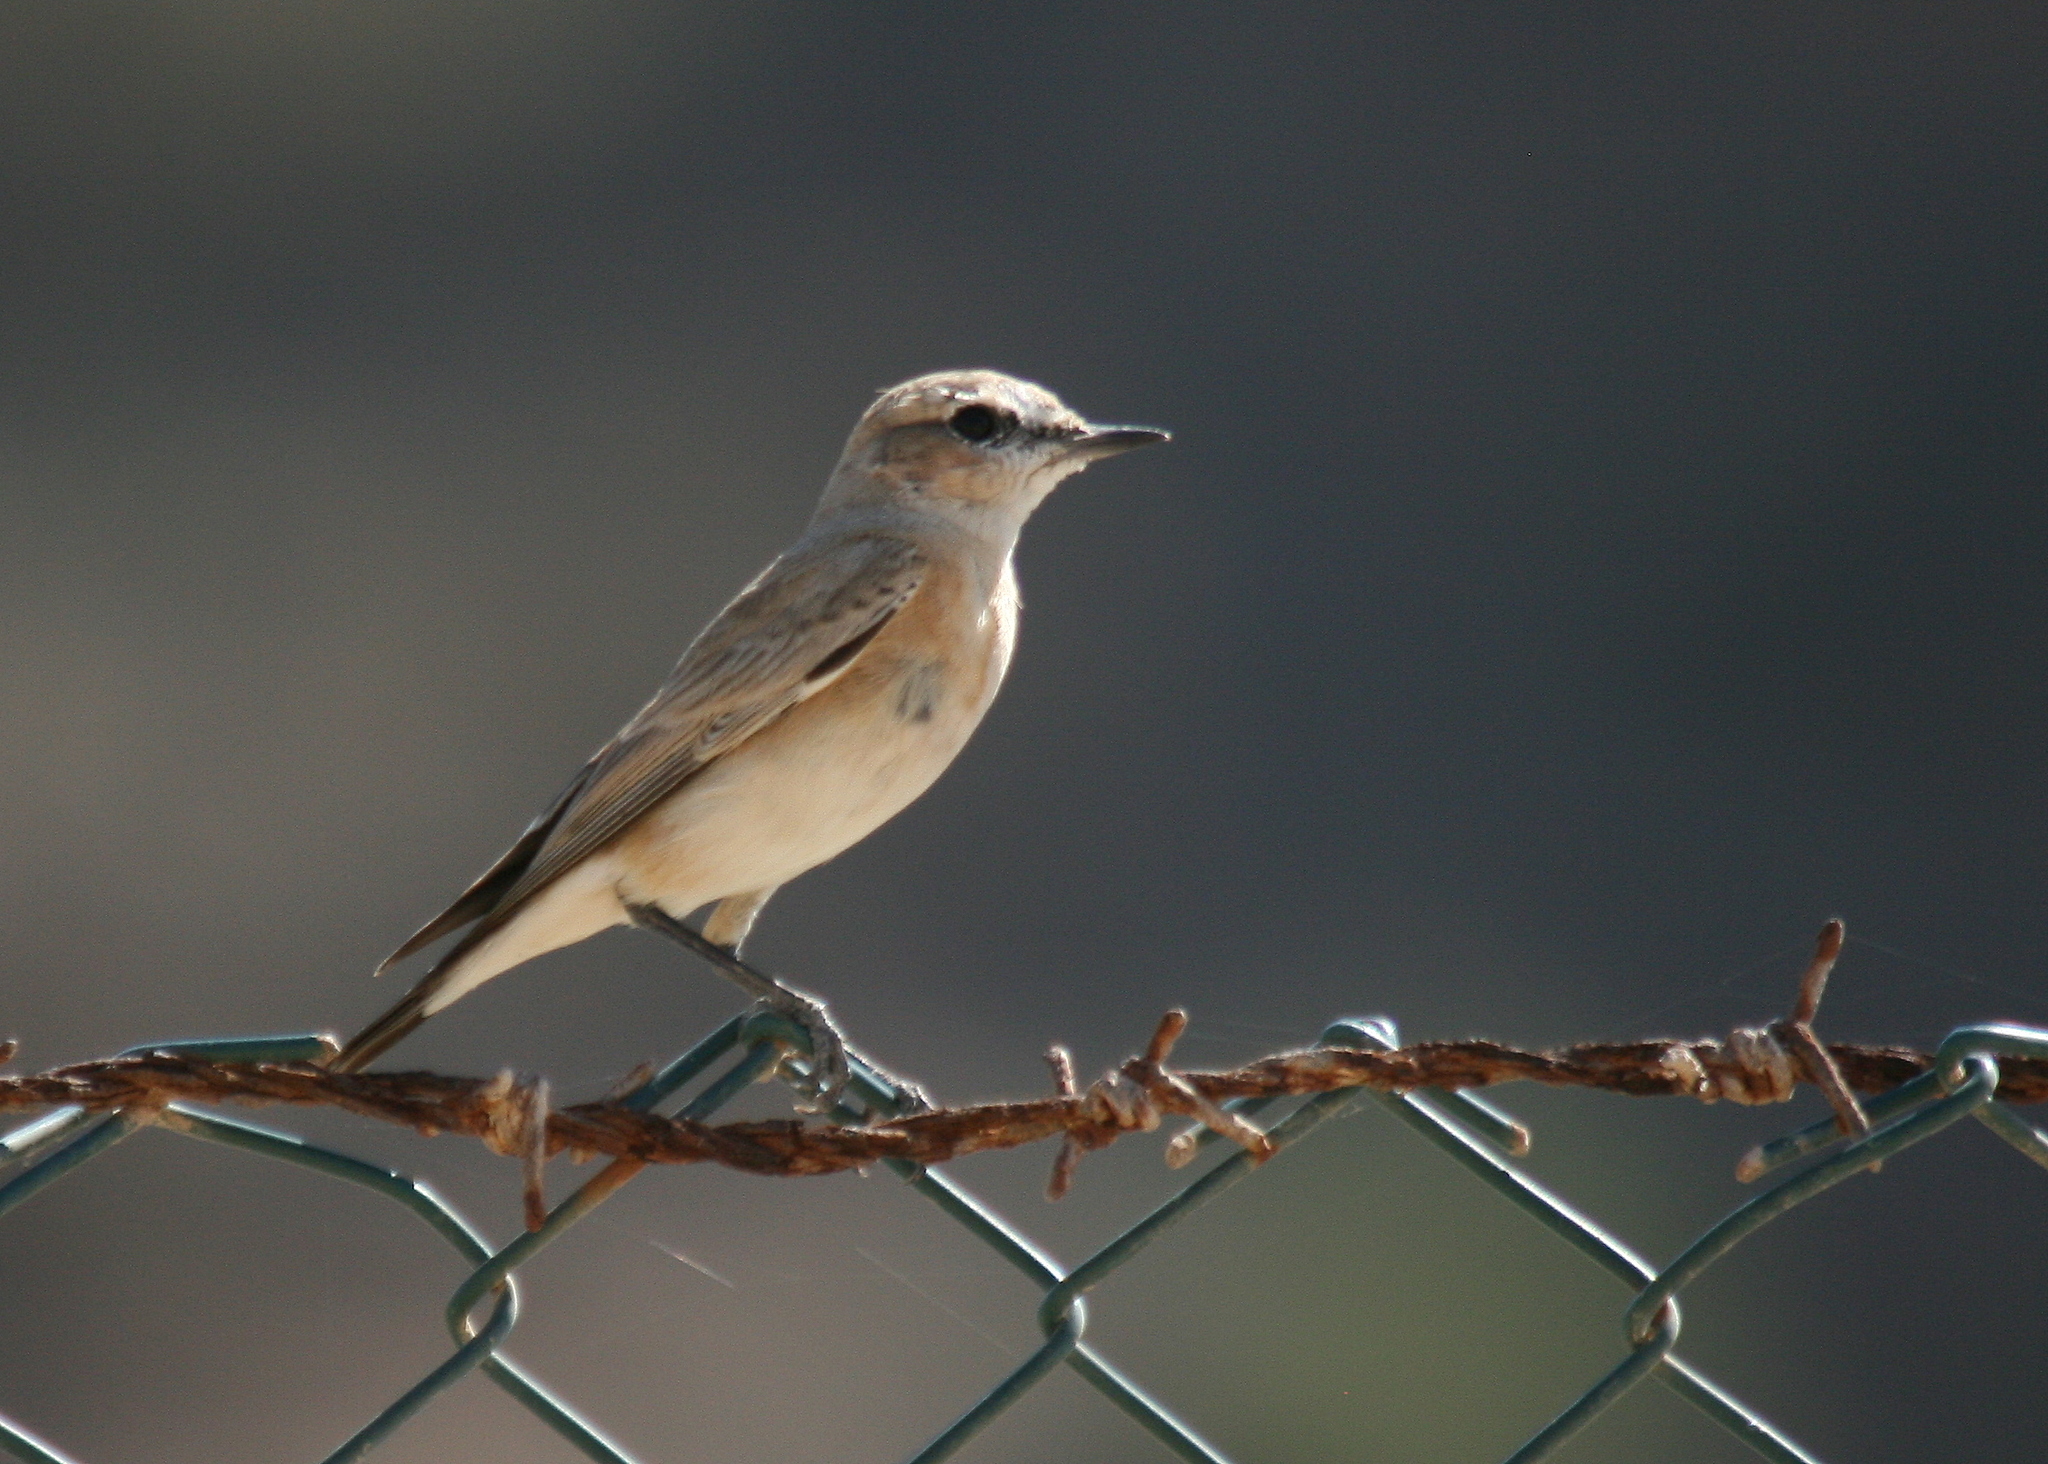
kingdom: Animalia
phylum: Chordata
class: Aves
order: Passeriformes
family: Muscicapidae
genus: Oenanthe
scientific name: Oenanthe deserti
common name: Desert wheatear
